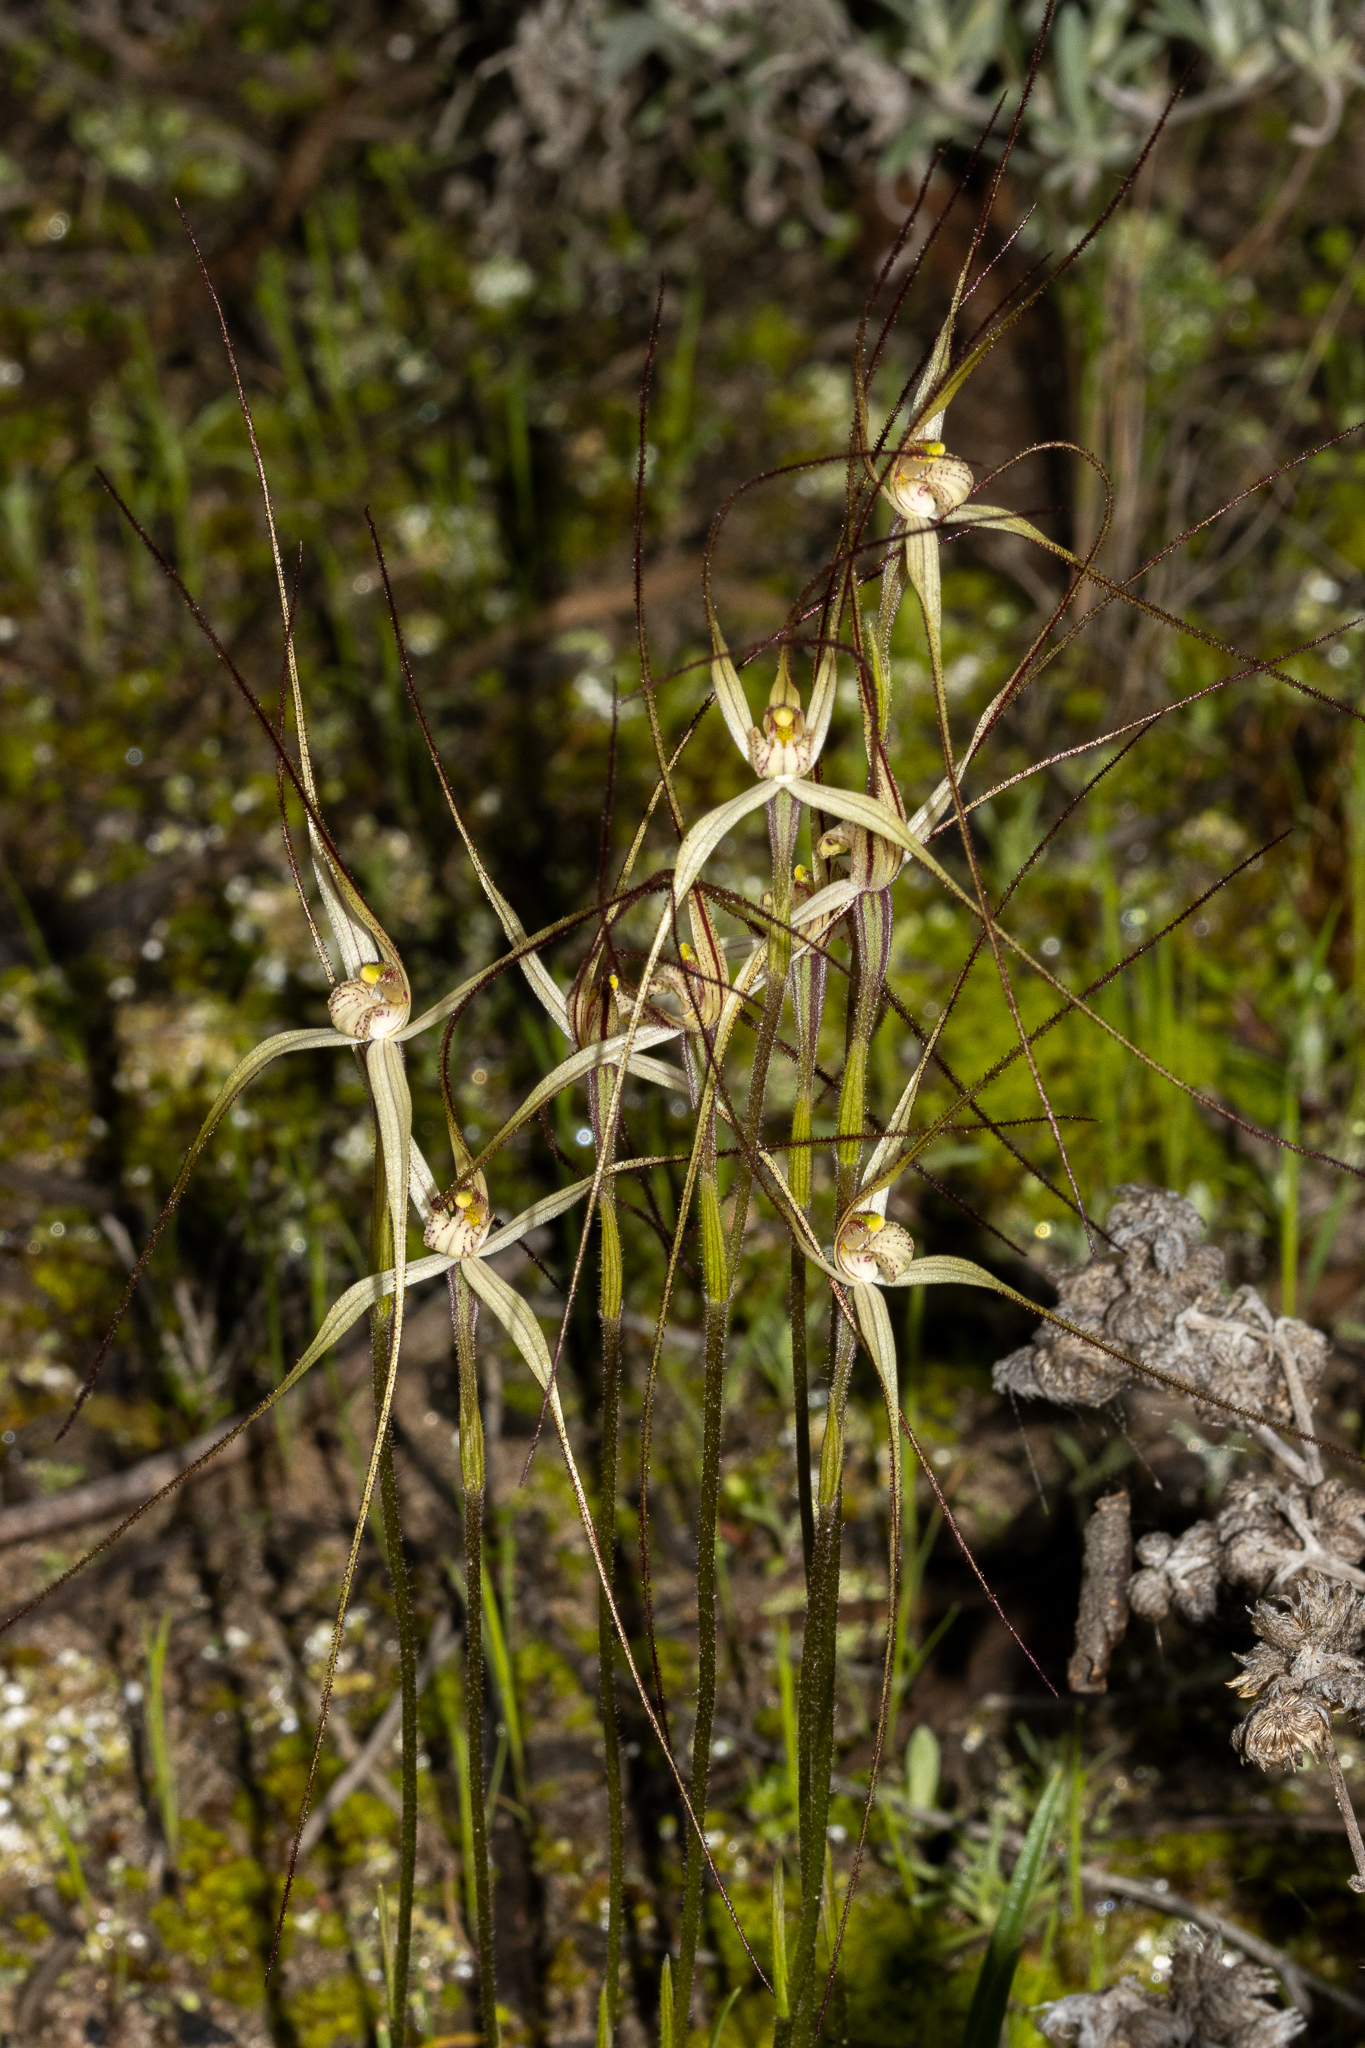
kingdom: Plantae
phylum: Tracheophyta
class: Liliopsida
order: Asparagales
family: Orchidaceae
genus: Caladenia
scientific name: Caladenia capillata
